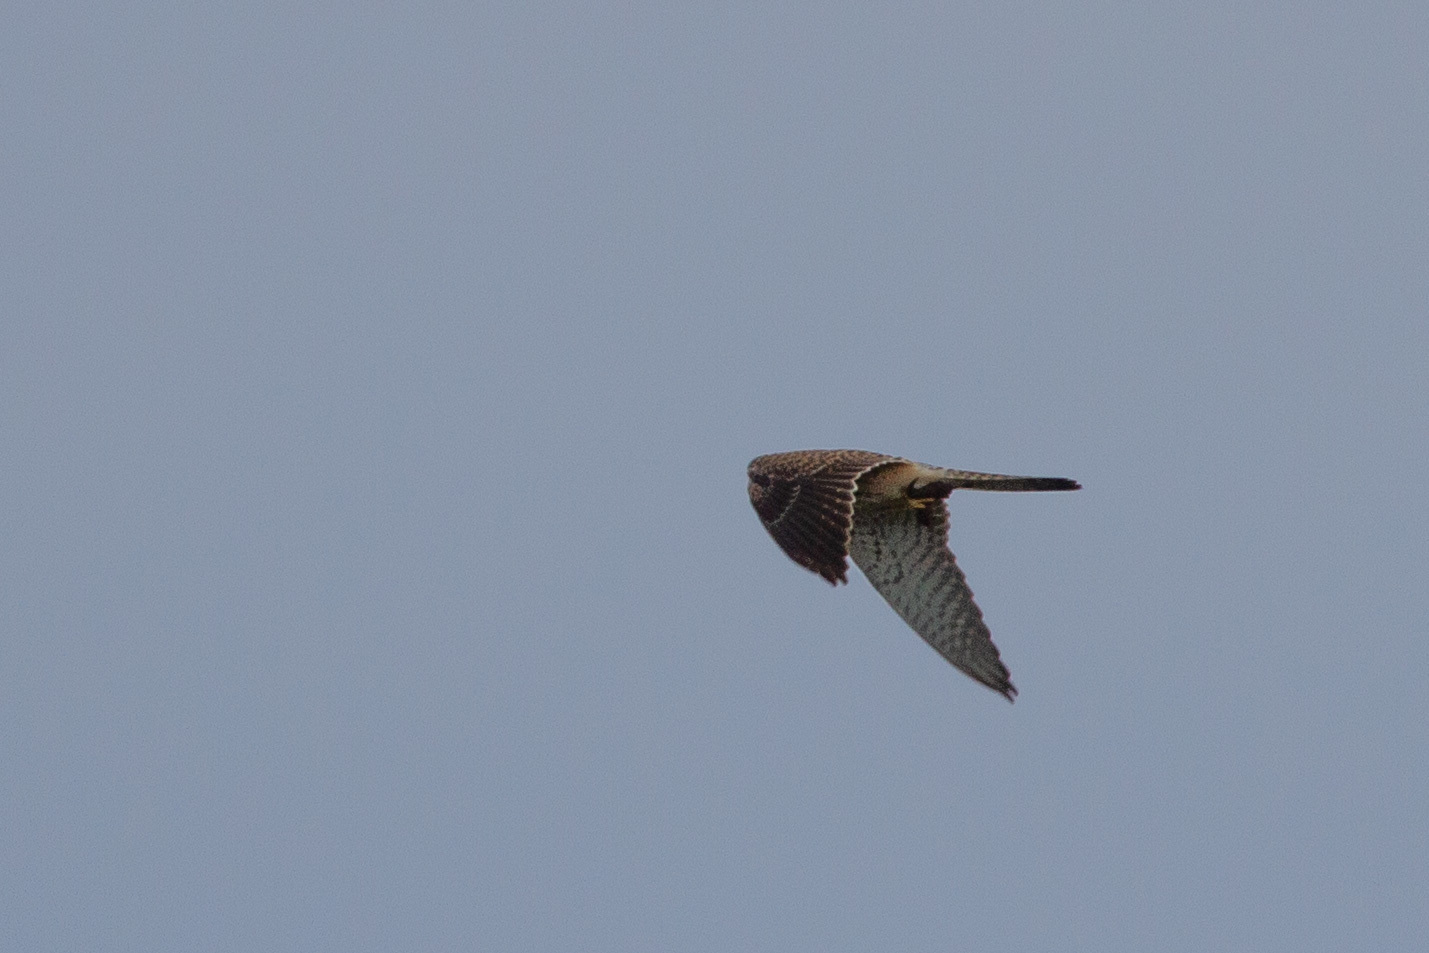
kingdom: Animalia
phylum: Chordata
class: Aves
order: Falconiformes
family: Falconidae
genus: Falco
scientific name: Falco tinnunculus
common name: Common kestrel
